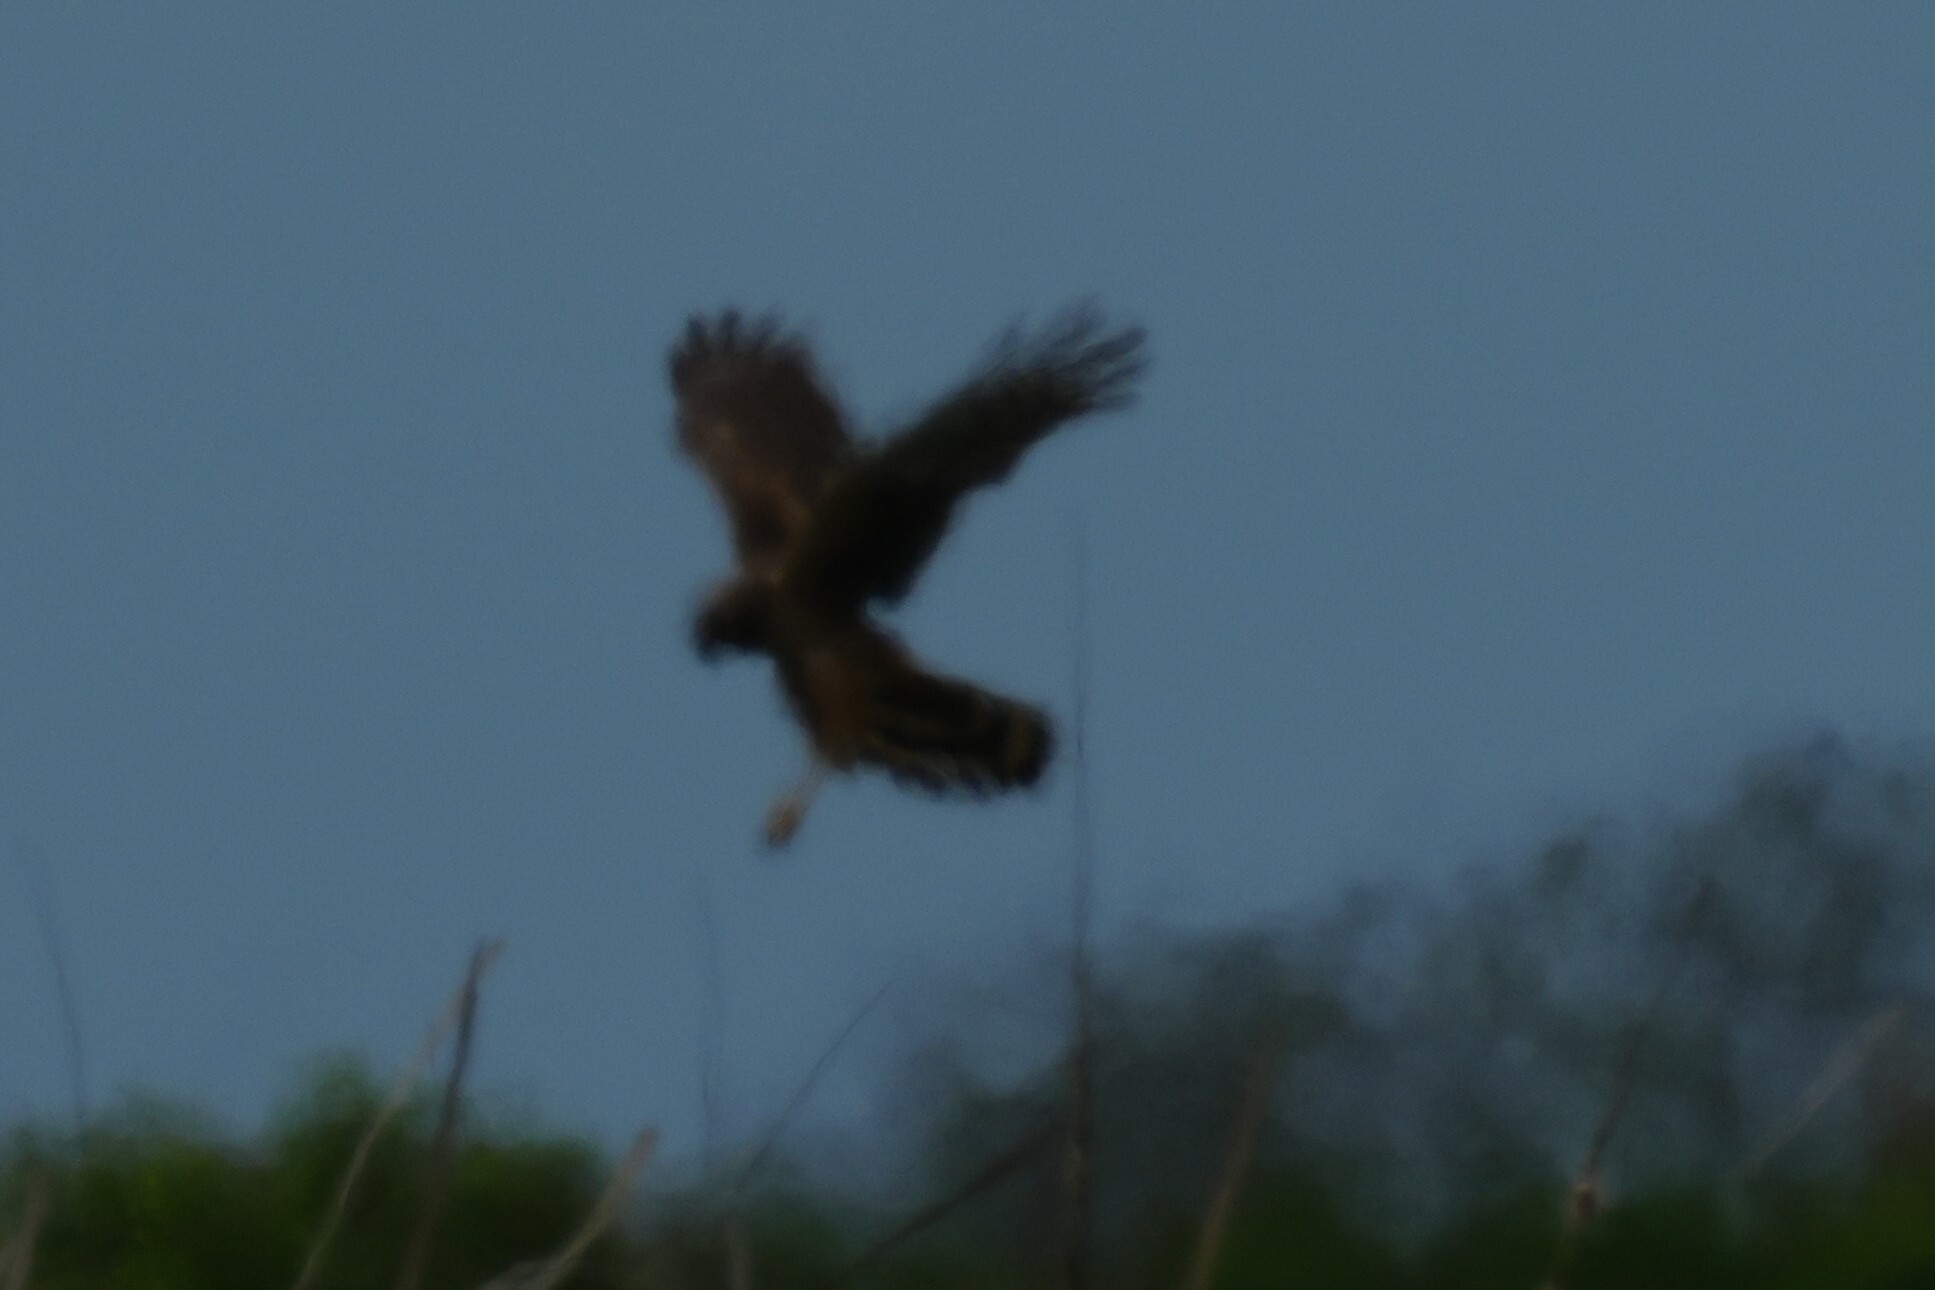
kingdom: Animalia
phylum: Chordata
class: Aves
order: Accipitriformes
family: Accipitridae
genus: Circus
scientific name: Circus cyaneus
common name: Hen harrier
